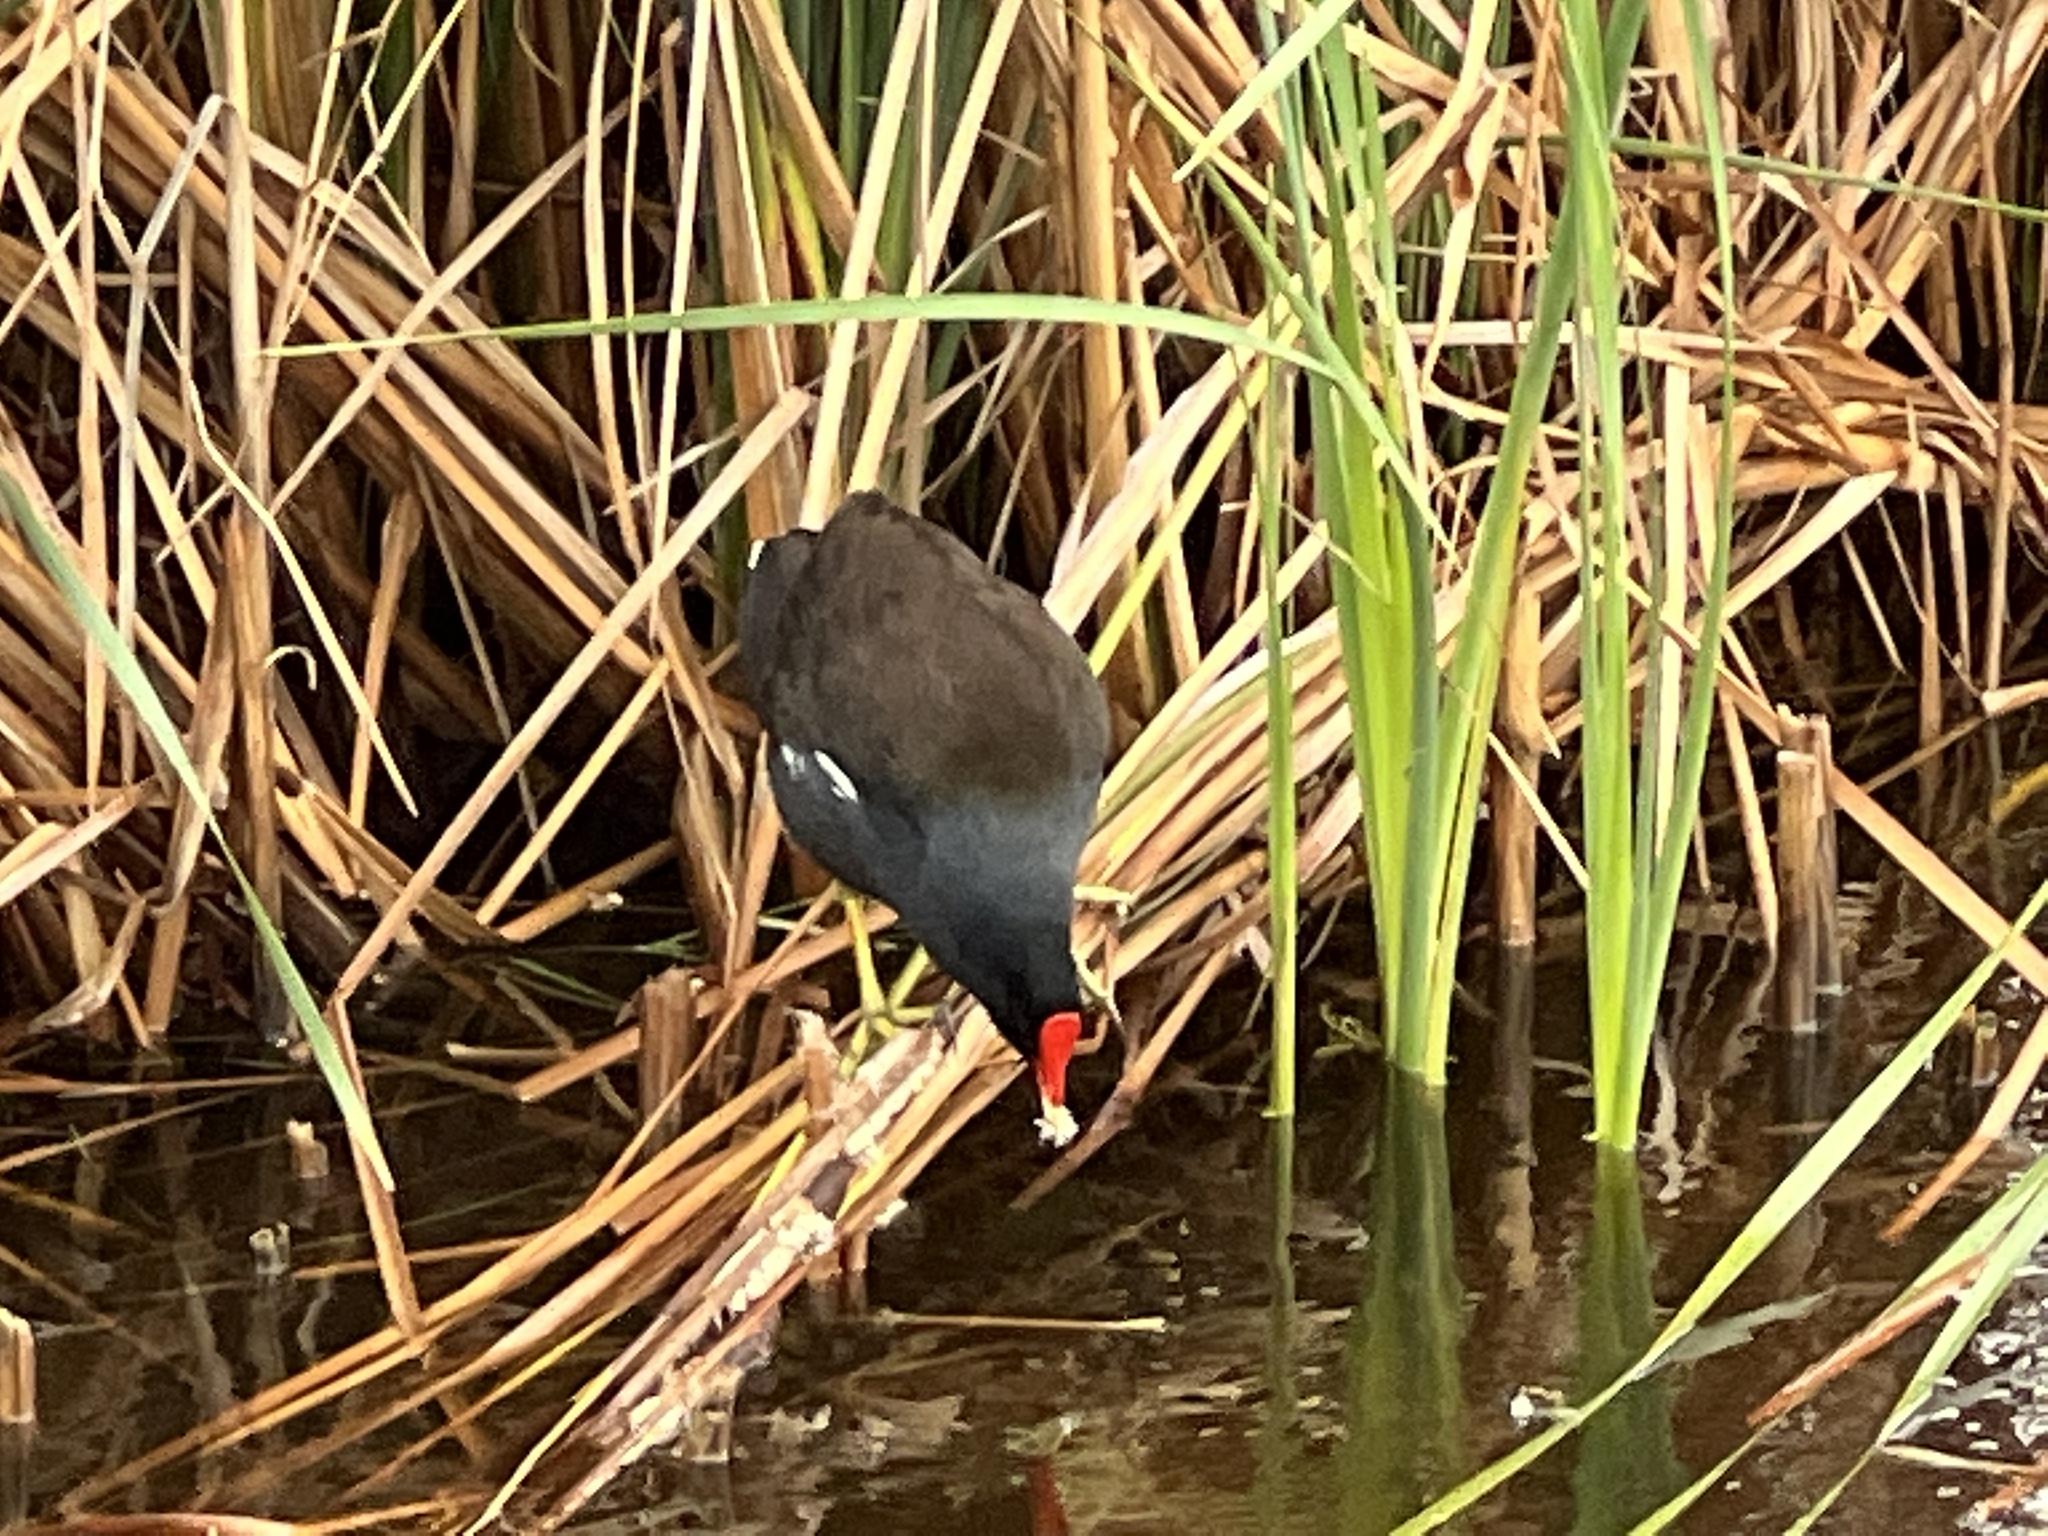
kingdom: Animalia
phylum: Chordata
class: Aves
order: Gruiformes
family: Rallidae
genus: Gallinula
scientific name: Gallinula chloropus
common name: Common moorhen
